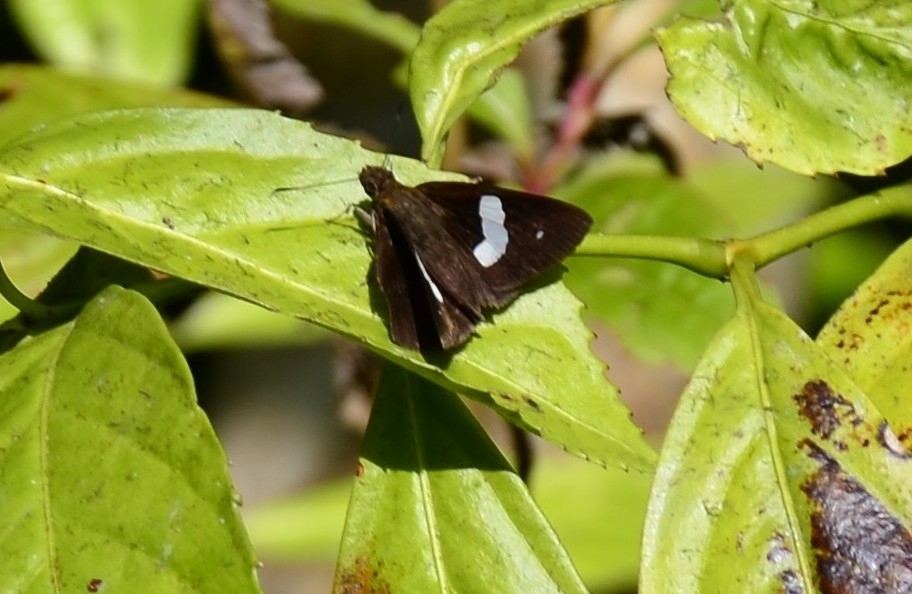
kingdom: Animalia
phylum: Arthropoda
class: Insecta
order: Lepidoptera
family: Hesperiidae
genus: Notocrypta
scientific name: Notocrypta paralysos
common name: Common banded demon
